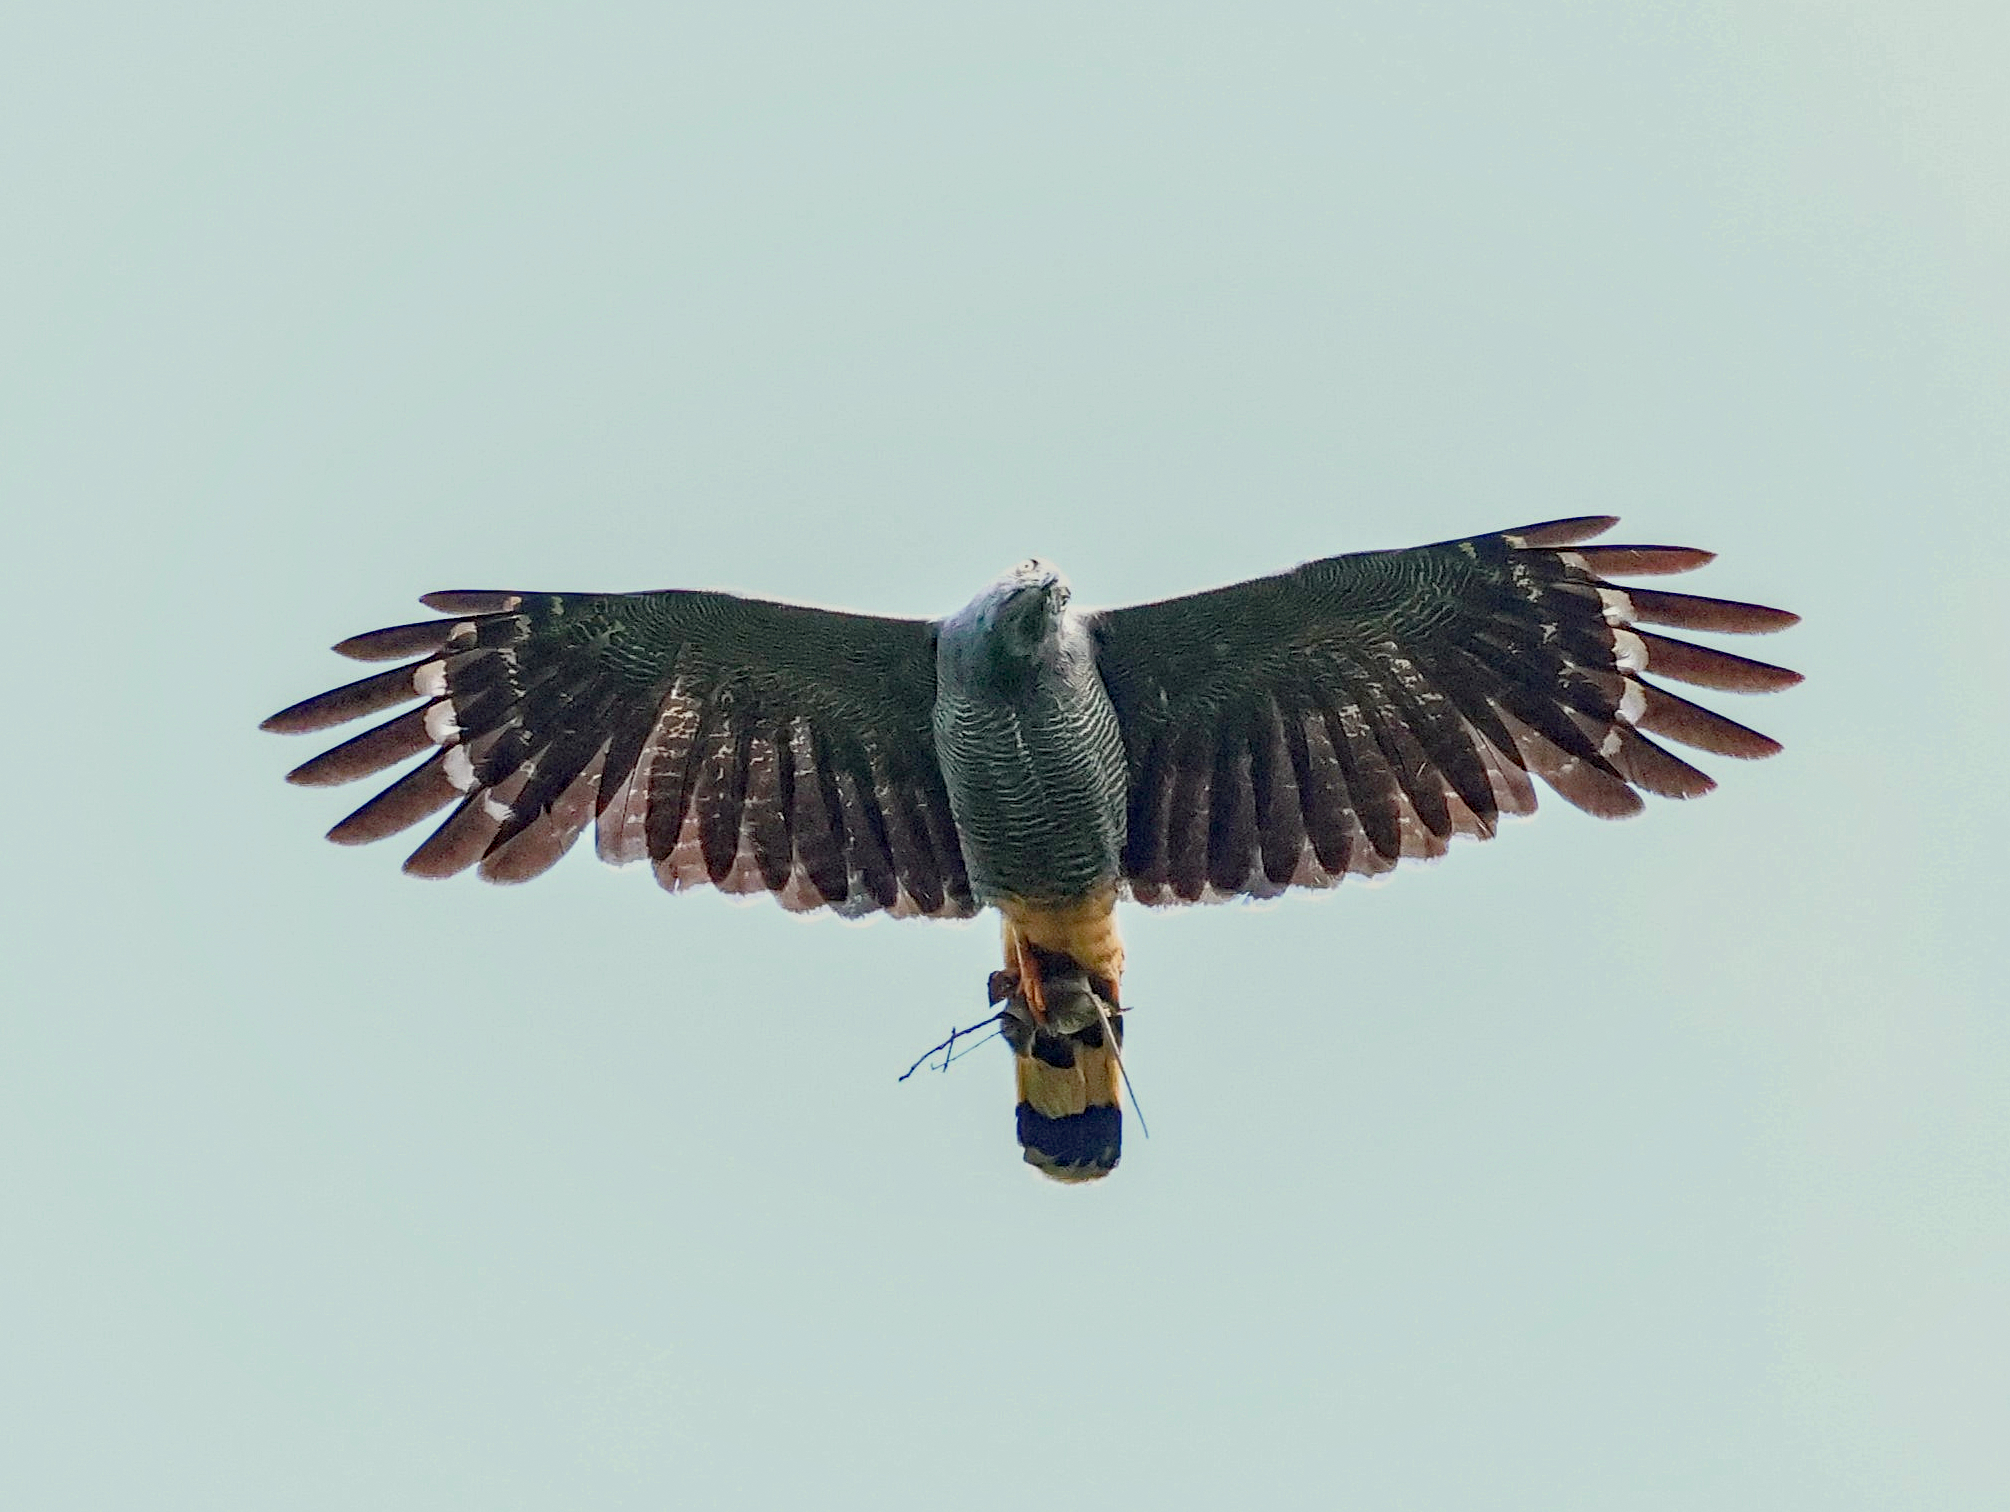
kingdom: Animalia
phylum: Chordata
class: Aves
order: Accipitriformes
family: Accipitridae
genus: Geranospiza
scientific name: Geranospiza caerulescens
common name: Crane hawk
